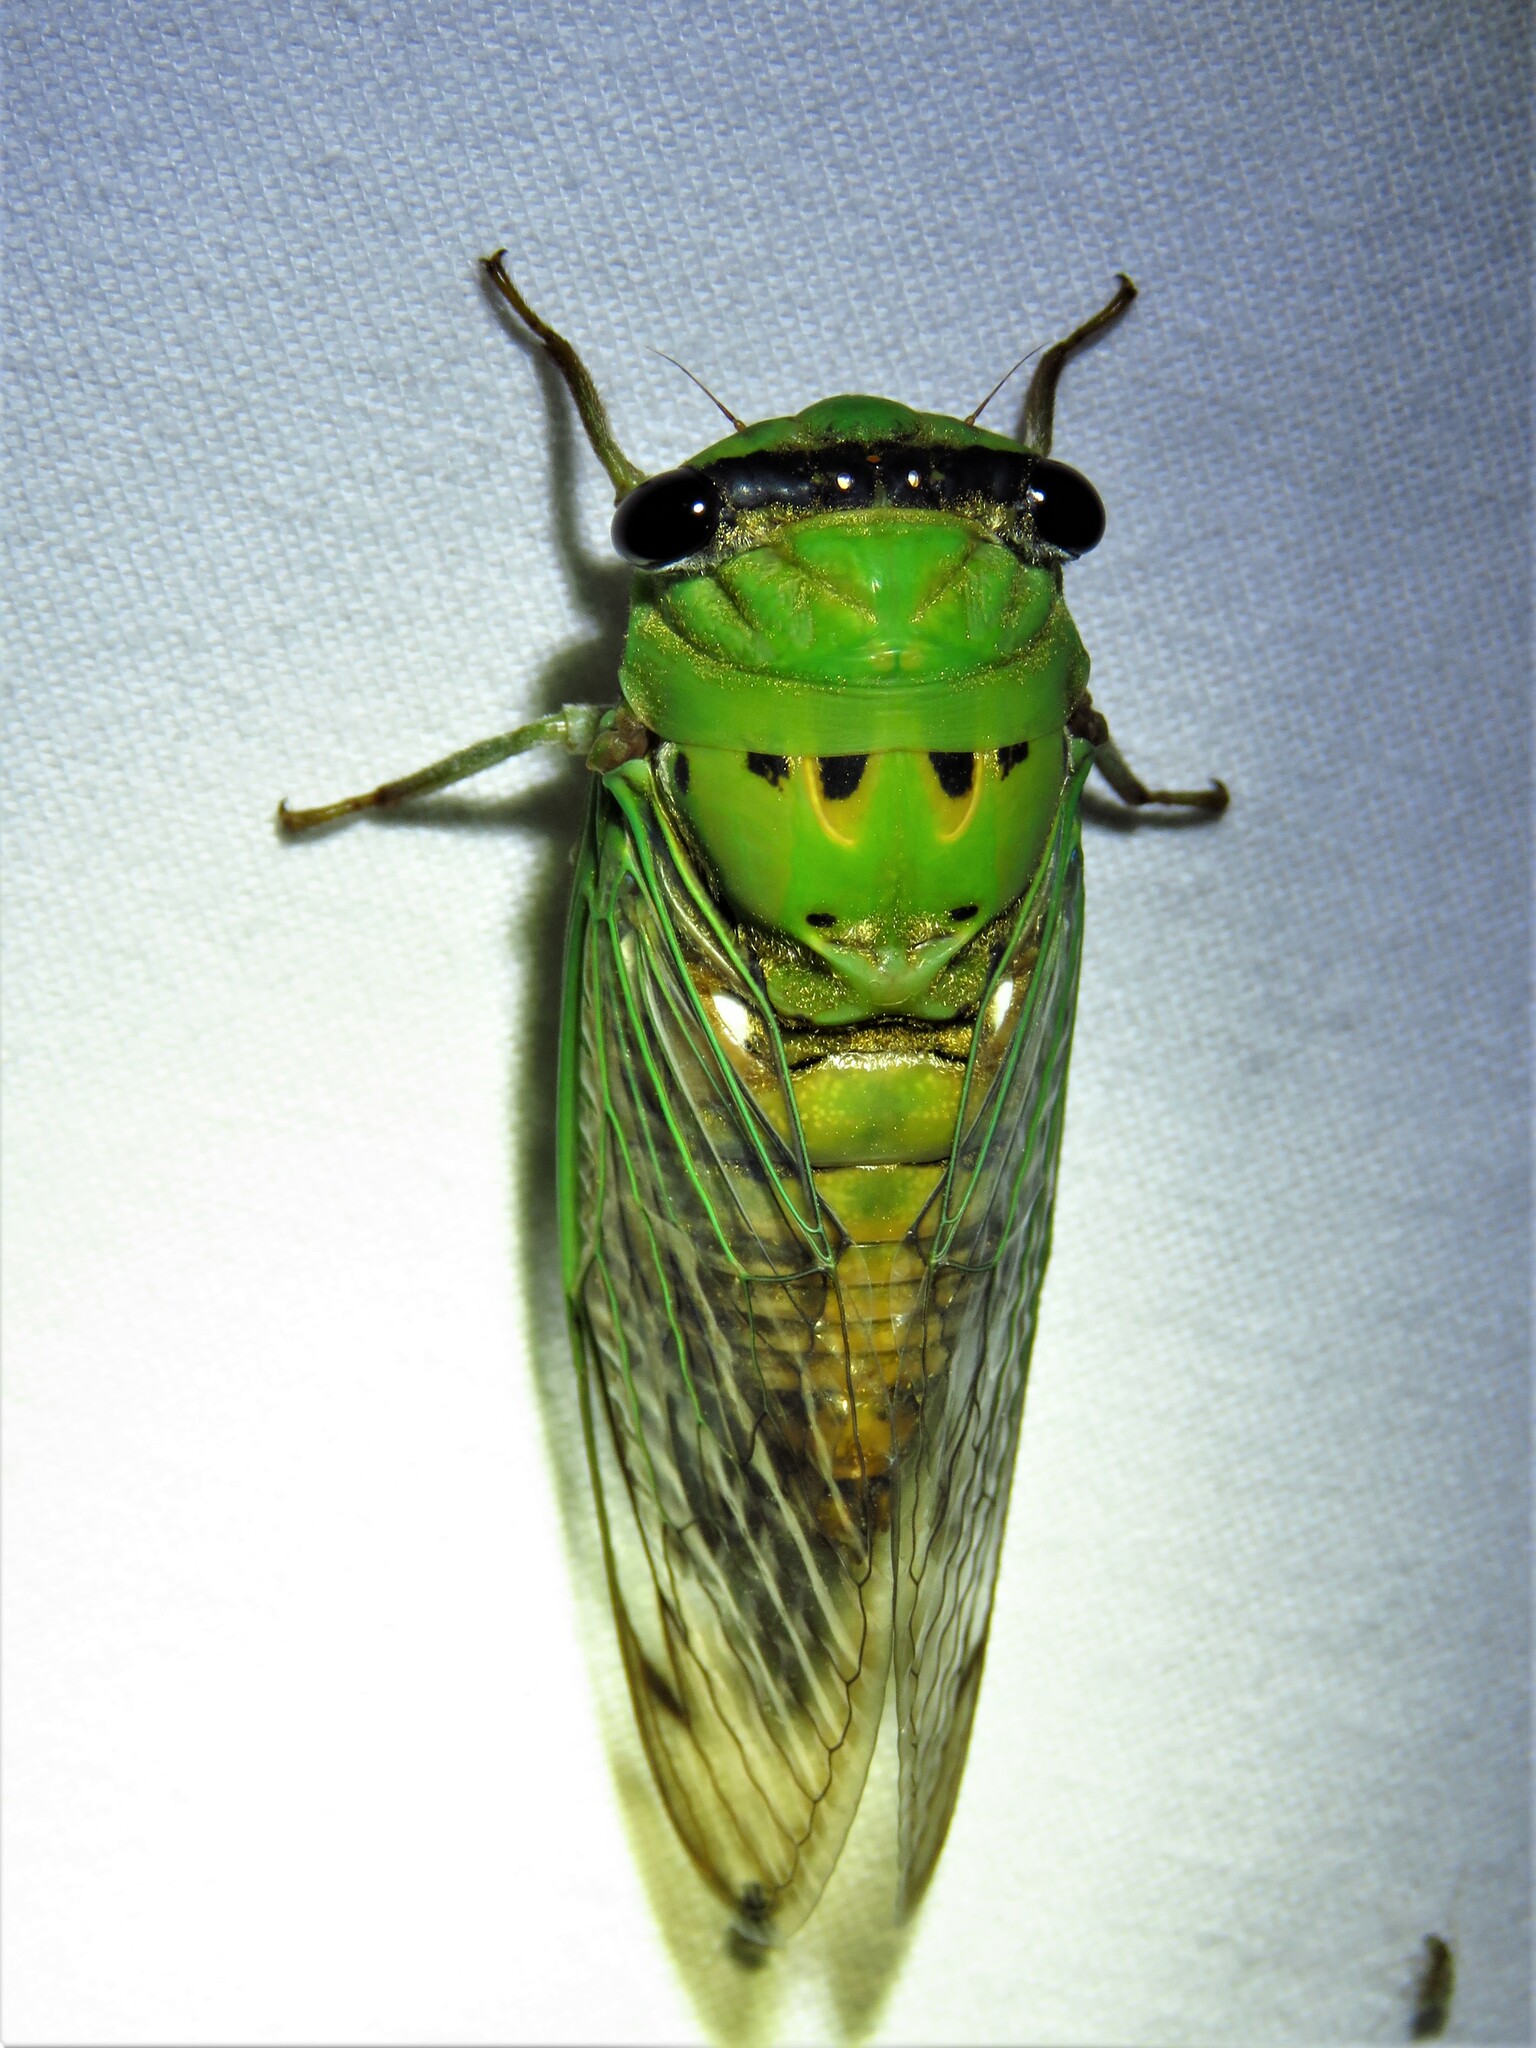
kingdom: Animalia
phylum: Arthropoda
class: Insecta
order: Hemiptera
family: Cicadidae
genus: Neotibicen
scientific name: Neotibicen superbus
